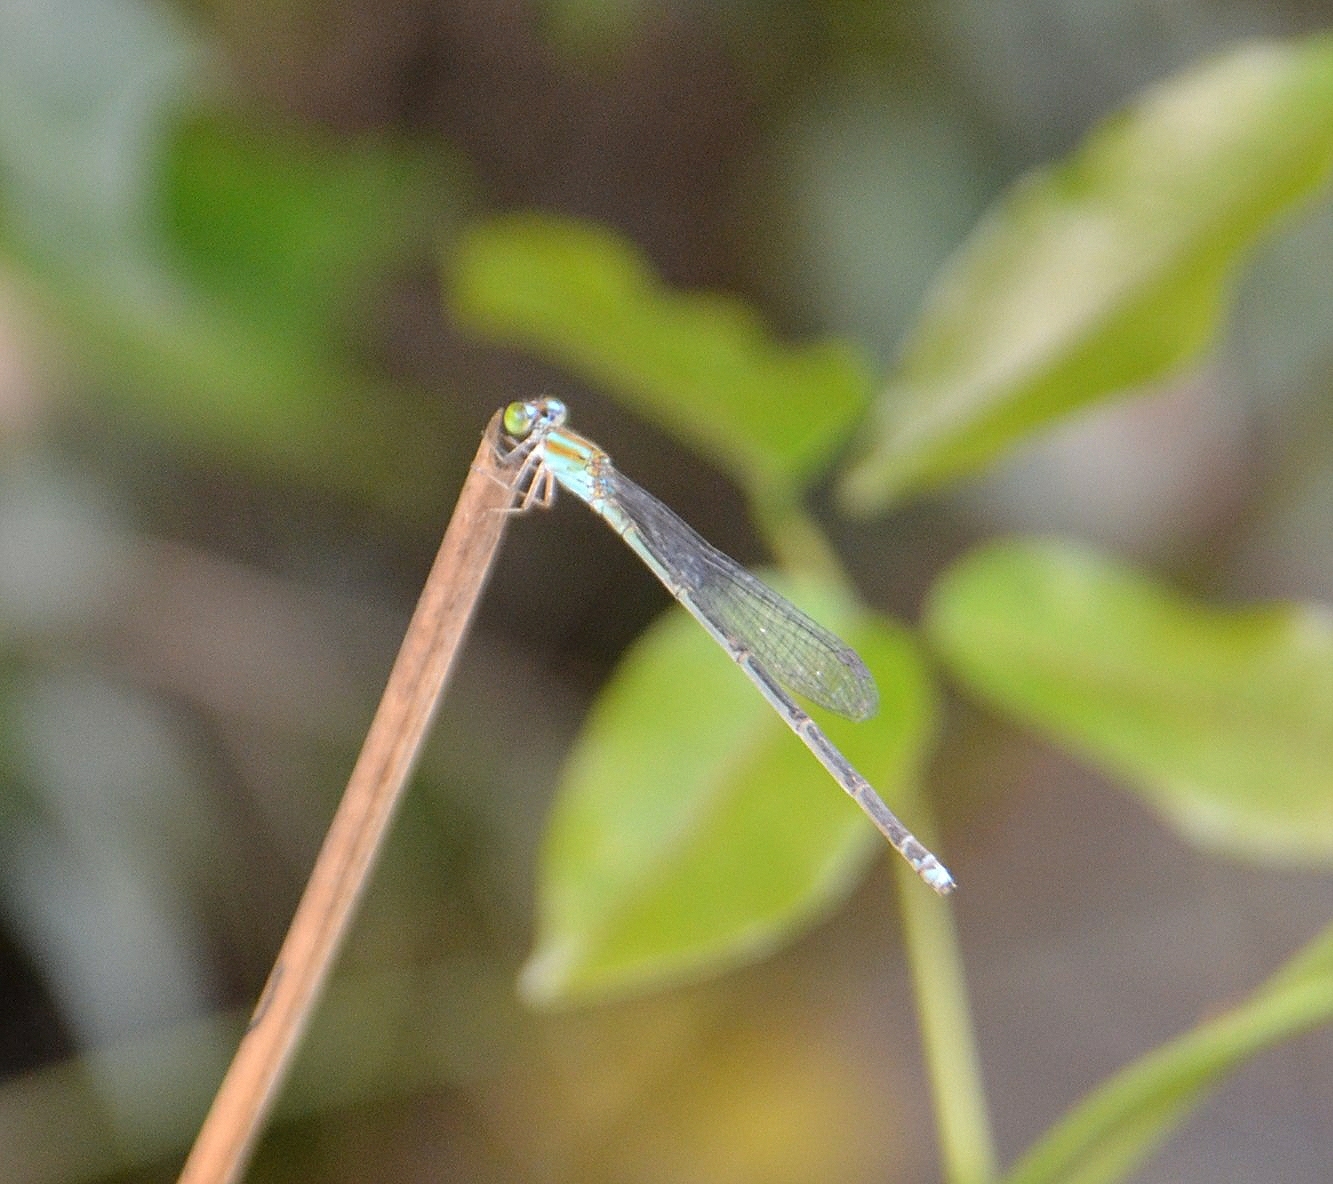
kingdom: Animalia
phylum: Arthropoda
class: Insecta
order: Odonata
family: Coenagrionidae
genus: Pseudagrion
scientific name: Pseudagrion microcephalum
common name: Blue riverdamsel
